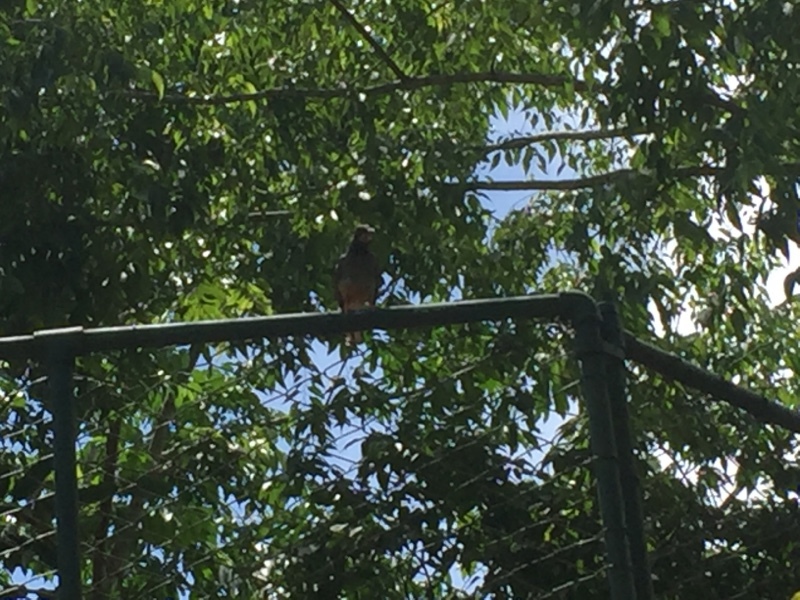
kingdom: Animalia
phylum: Chordata
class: Aves
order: Passeriformes
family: Turdidae
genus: Turdus
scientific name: Turdus plumbeus
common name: Red-legged thrush
